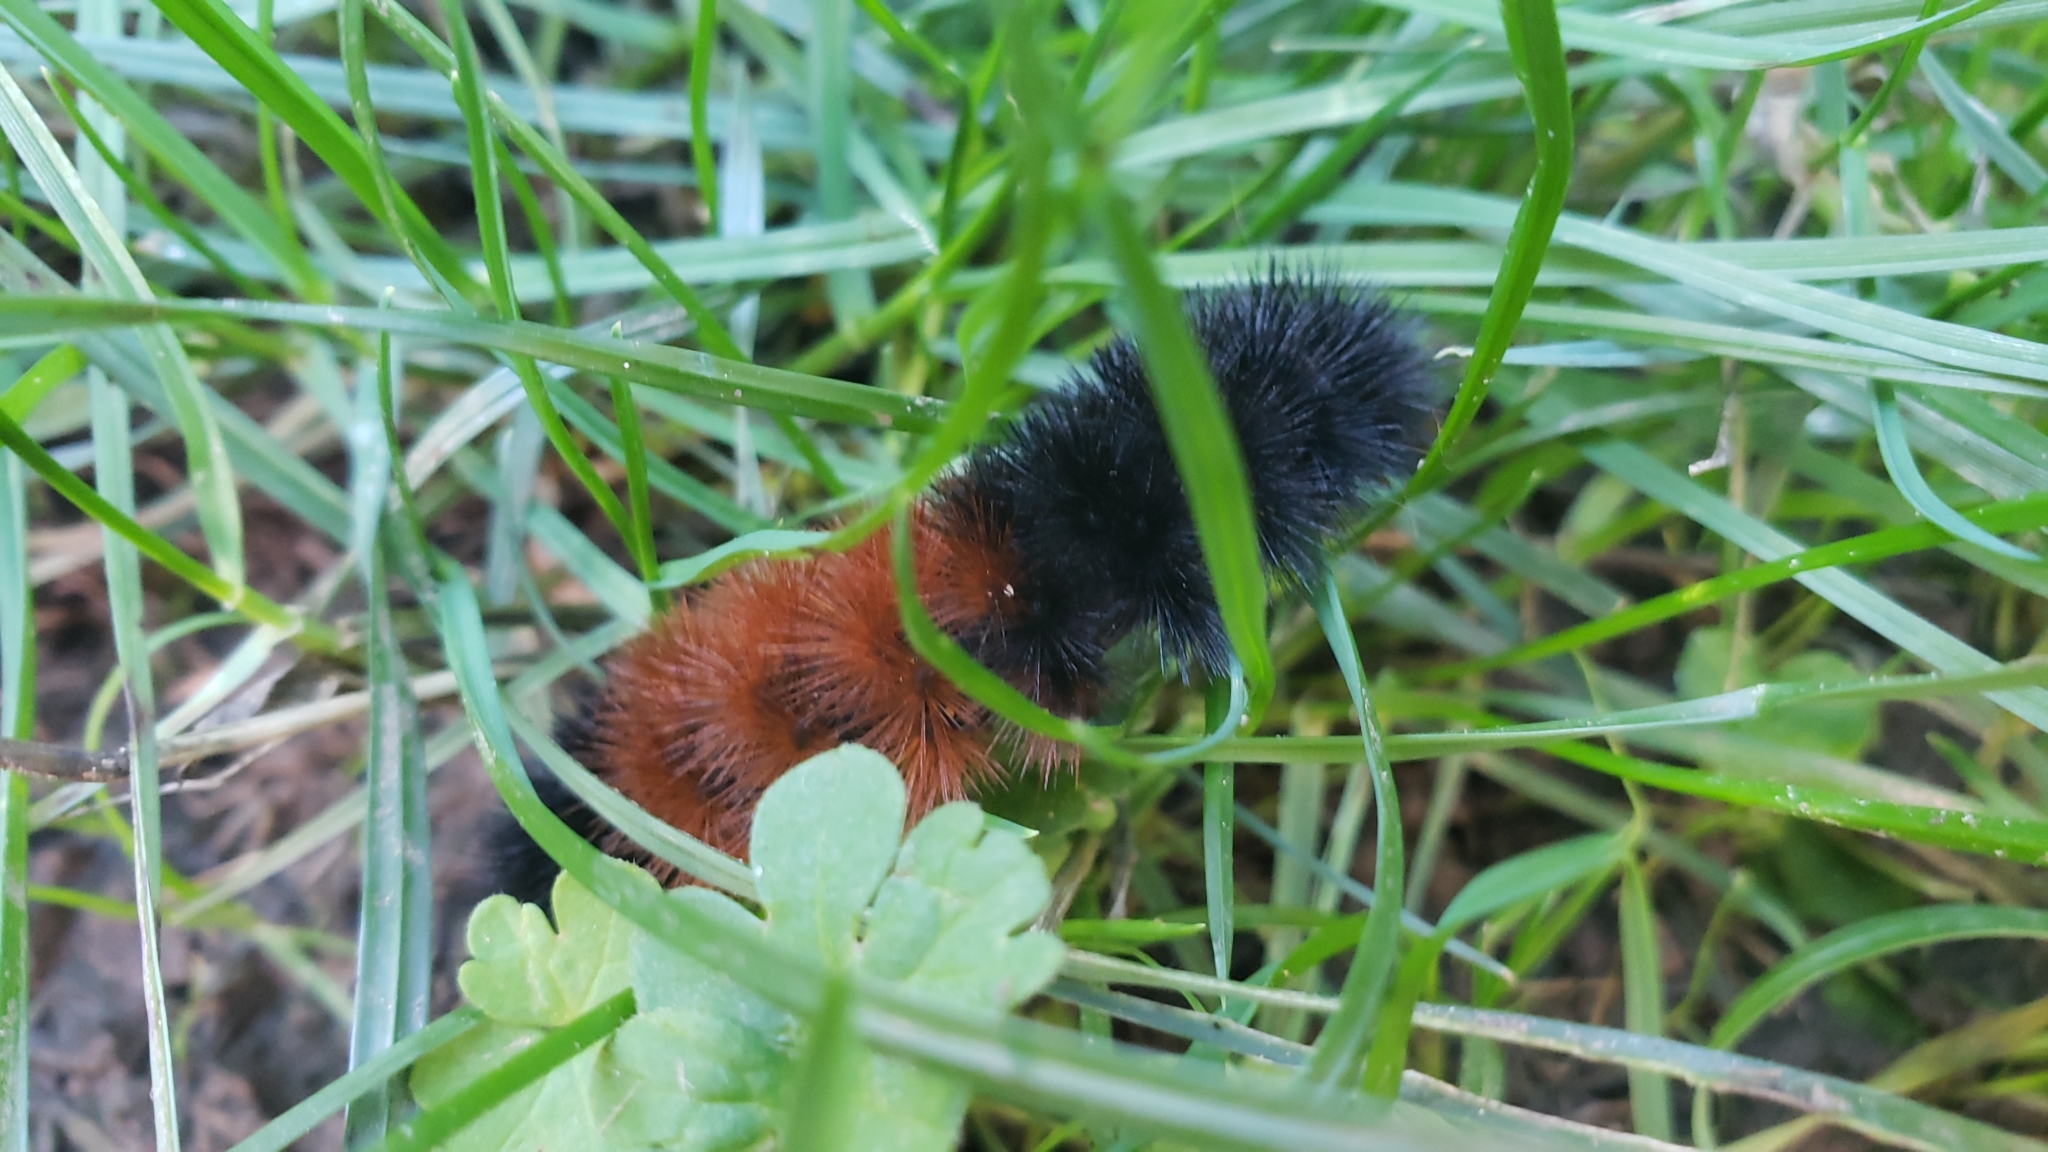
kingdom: Animalia
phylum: Arthropoda
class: Insecta
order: Lepidoptera
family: Erebidae
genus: Pyrrharctia
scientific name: Pyrrharctia isabella
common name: Isabella tiger moth
